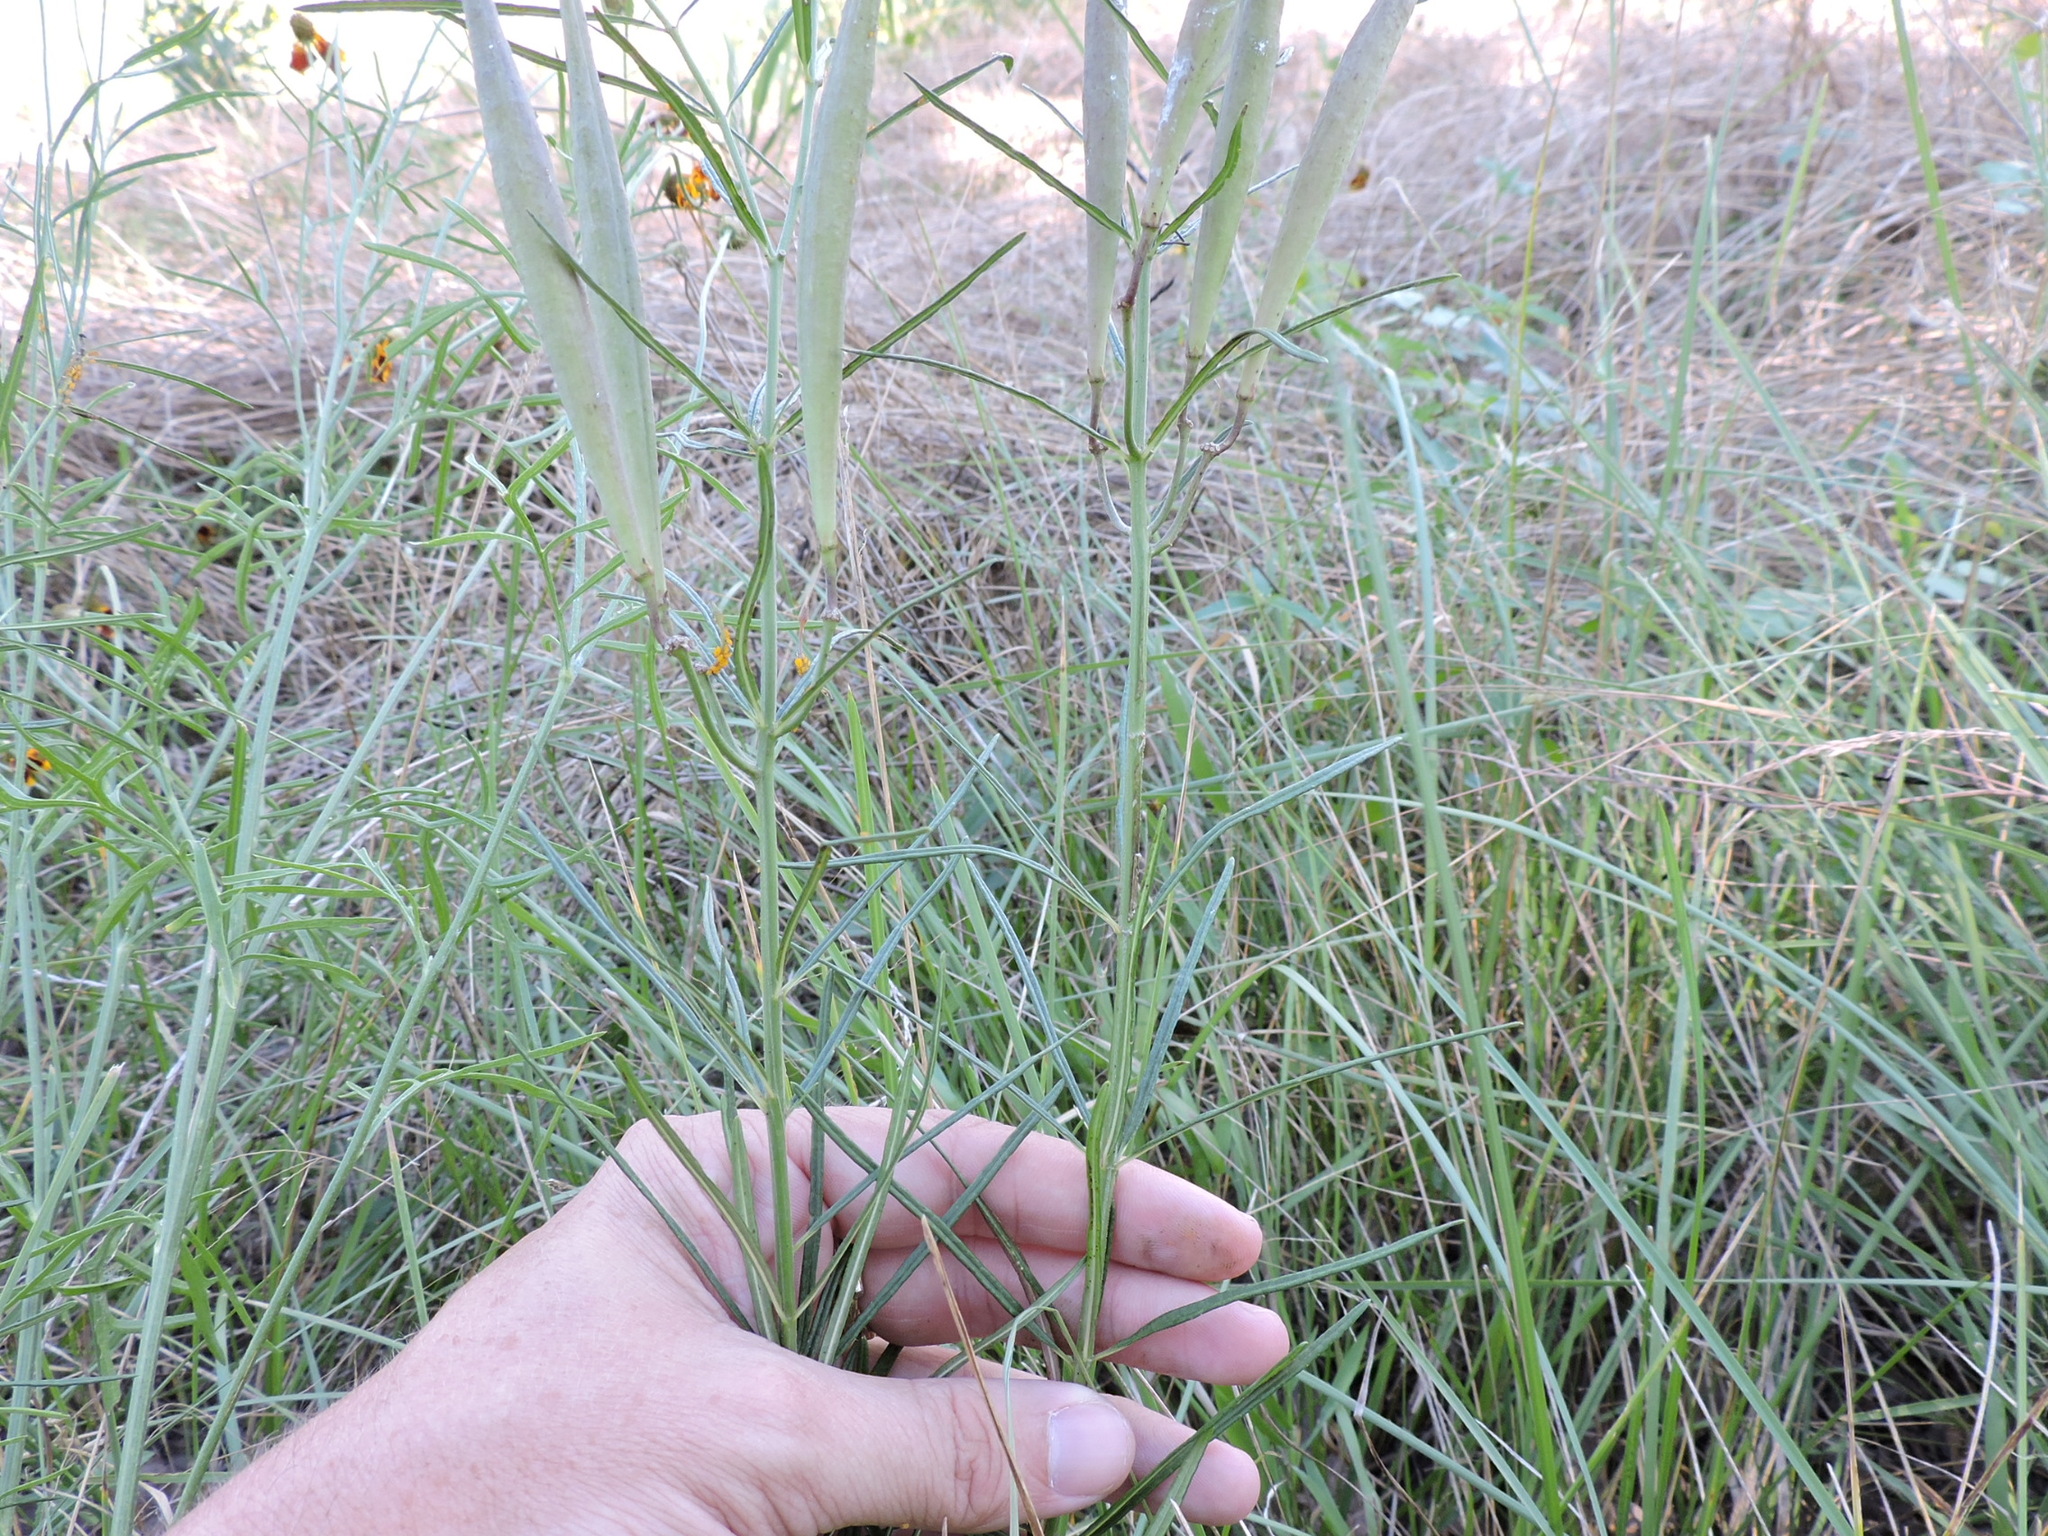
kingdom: Plantae
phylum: Tracheophyta
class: Magnoliopsida
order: Gentianales
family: Apocynaceae
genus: Asclepias
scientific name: Asclepias verticillata
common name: Eastern whorled milkweed
